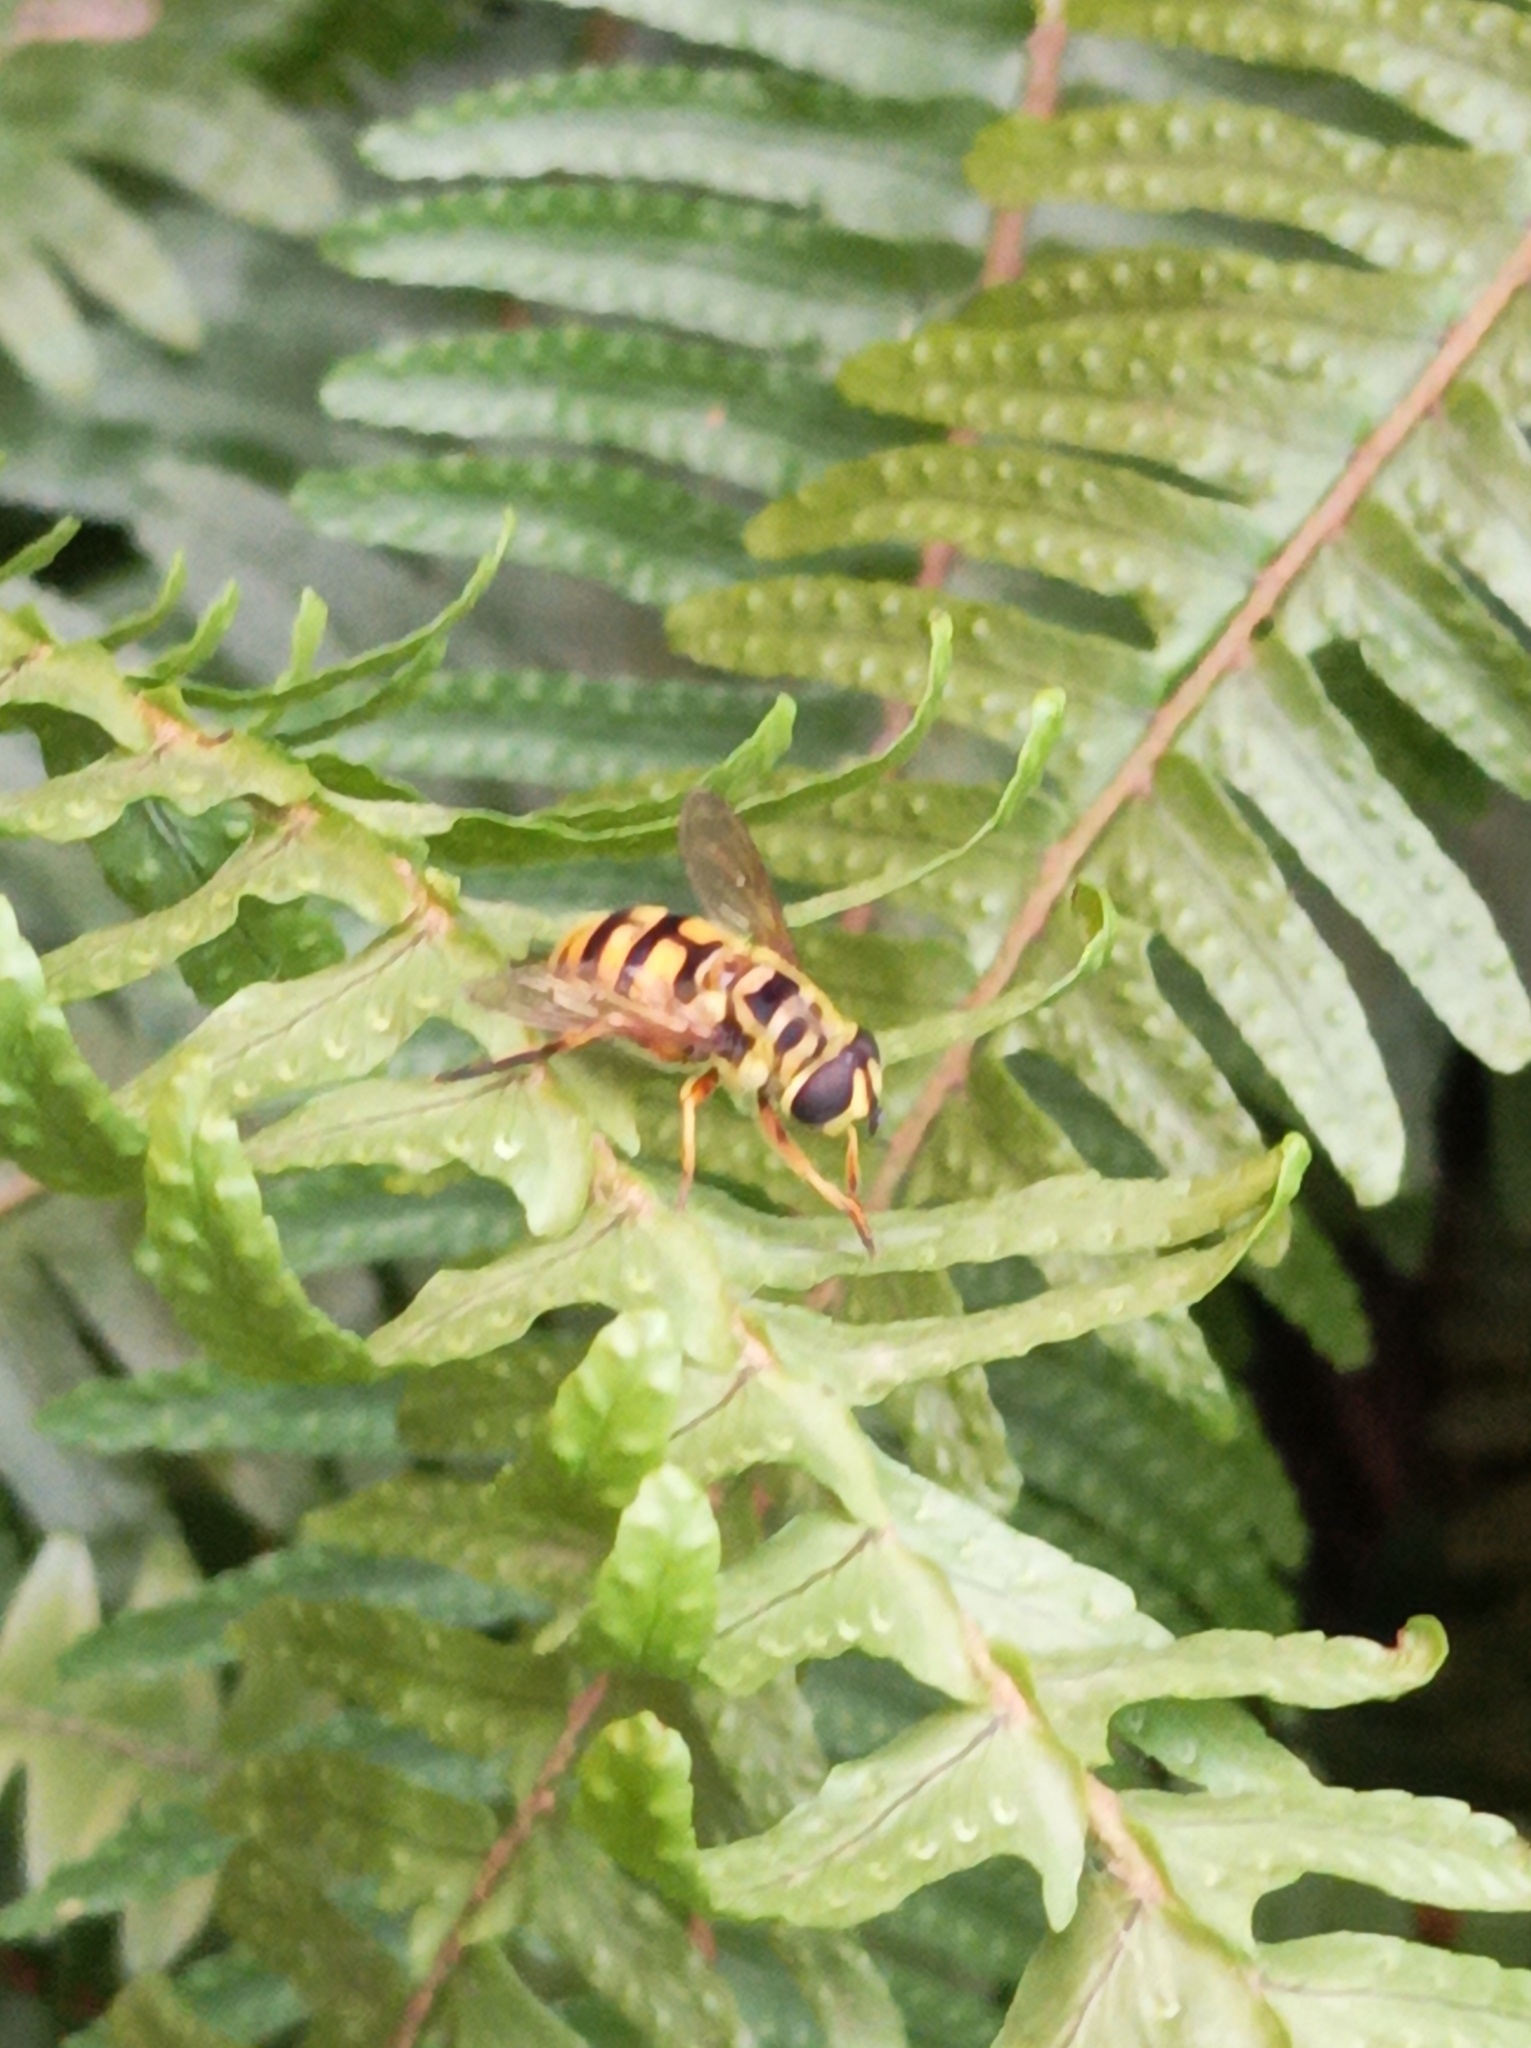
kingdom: Animalia
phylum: Arthropoda
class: Insecta
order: Diptera
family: Syrphidae
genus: Myathropa
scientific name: Myathropa florea
